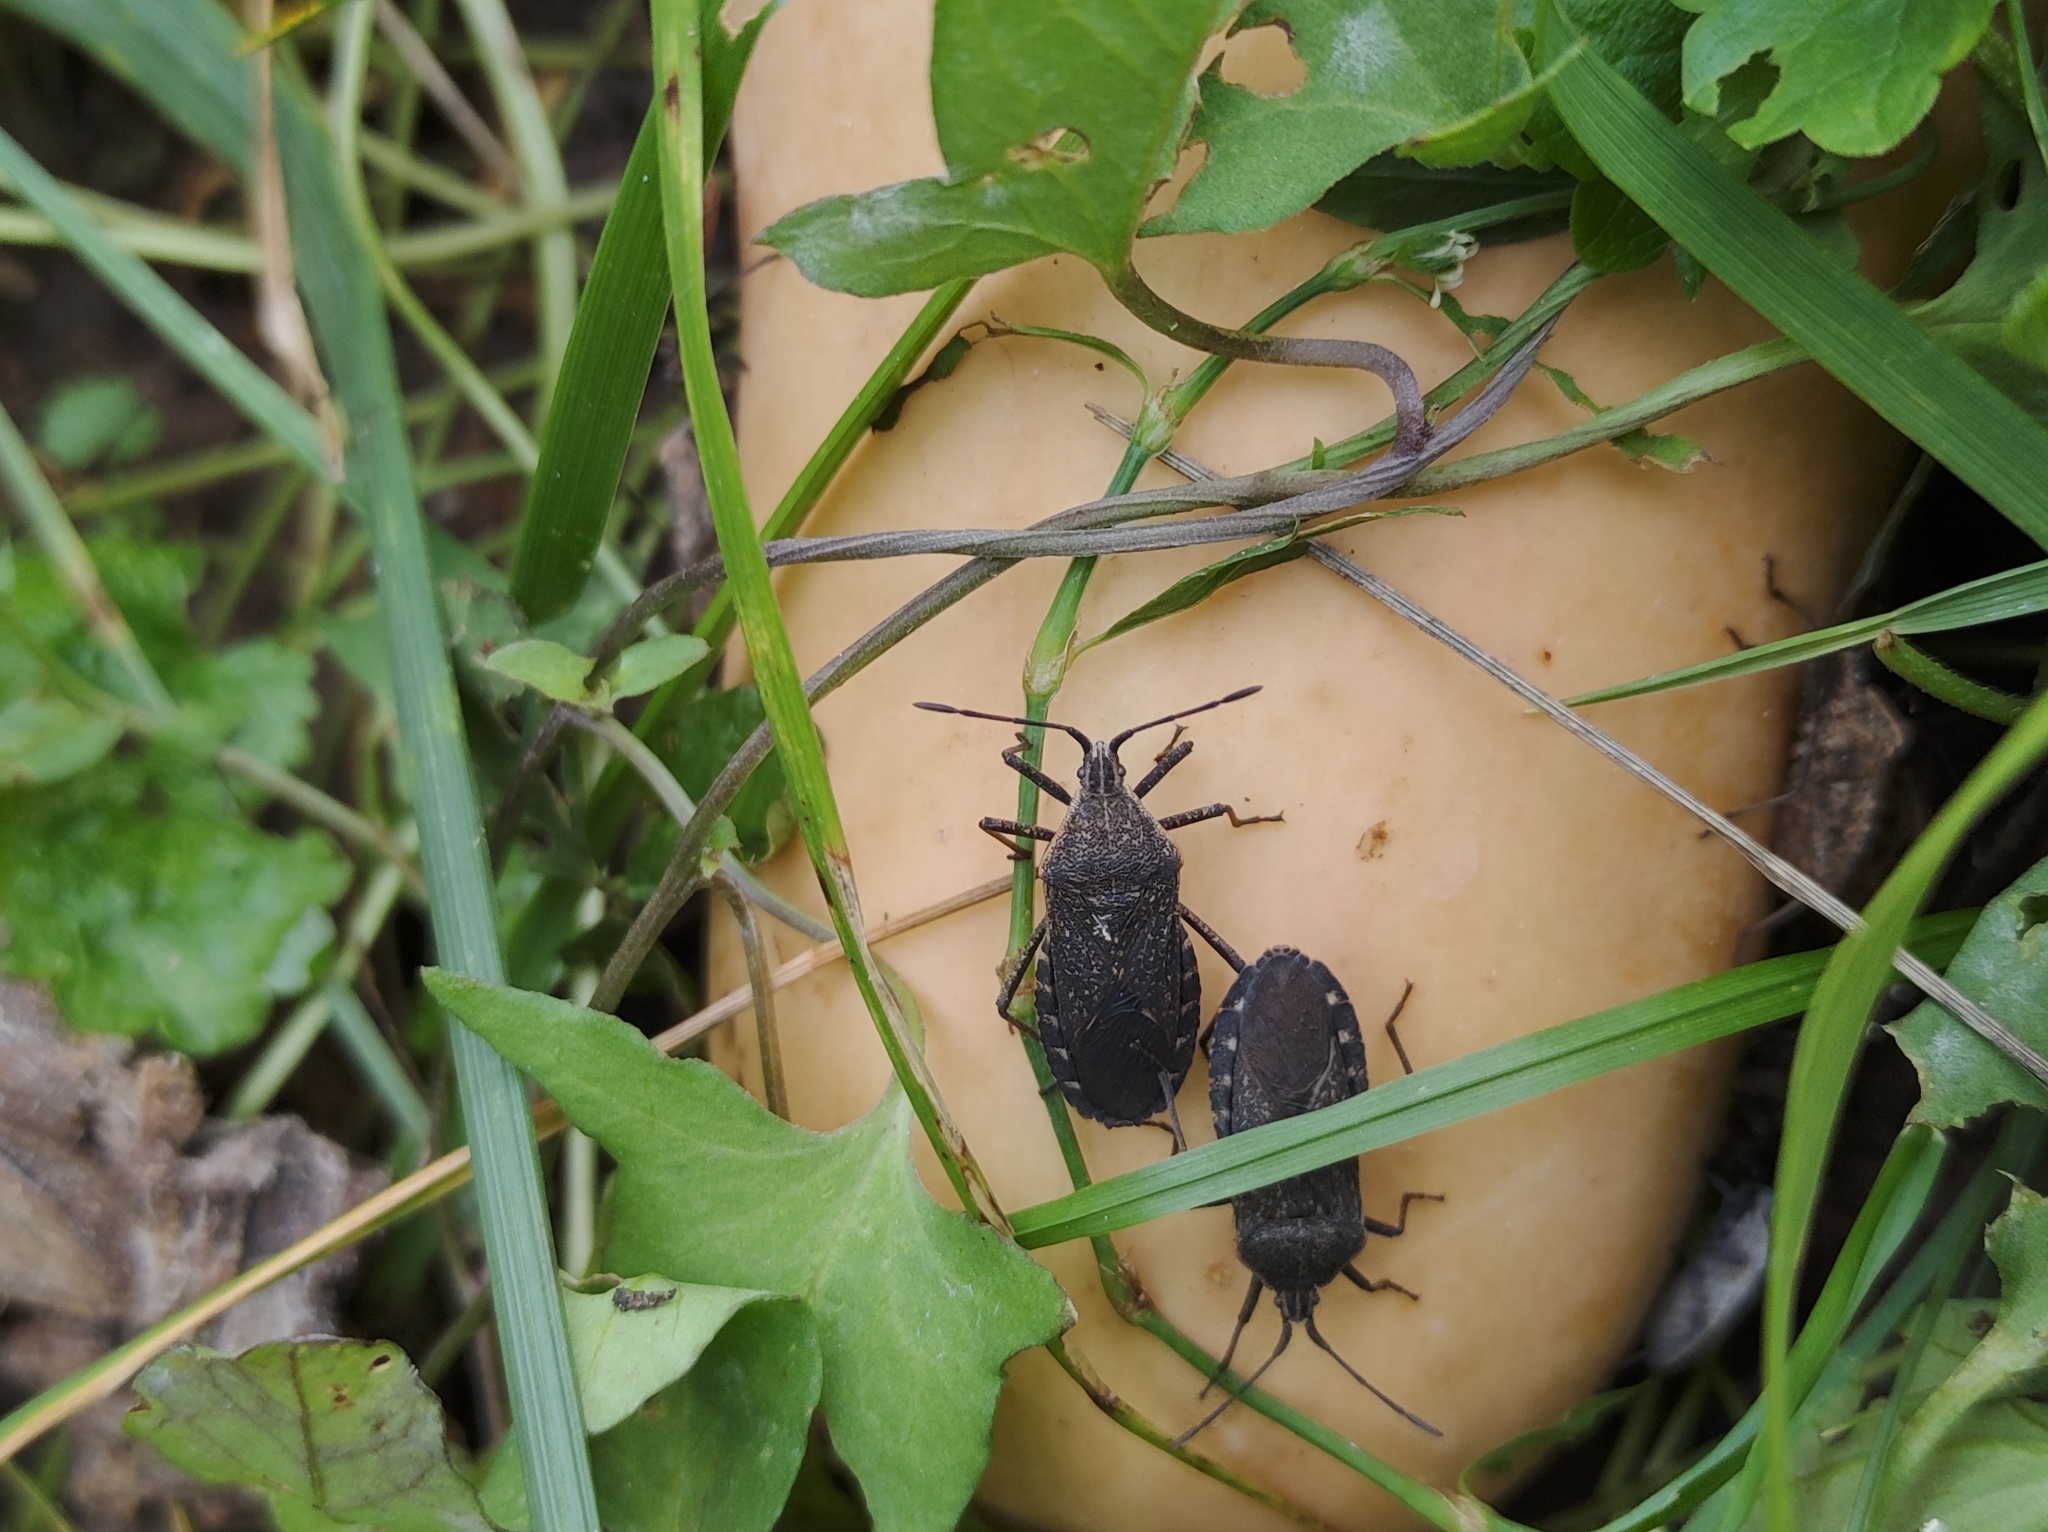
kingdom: Animalia
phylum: Arthropoda
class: Insecta
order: Hemiptera
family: Coreidae
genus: Anasa
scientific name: Anasa tristis
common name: Squash bug
